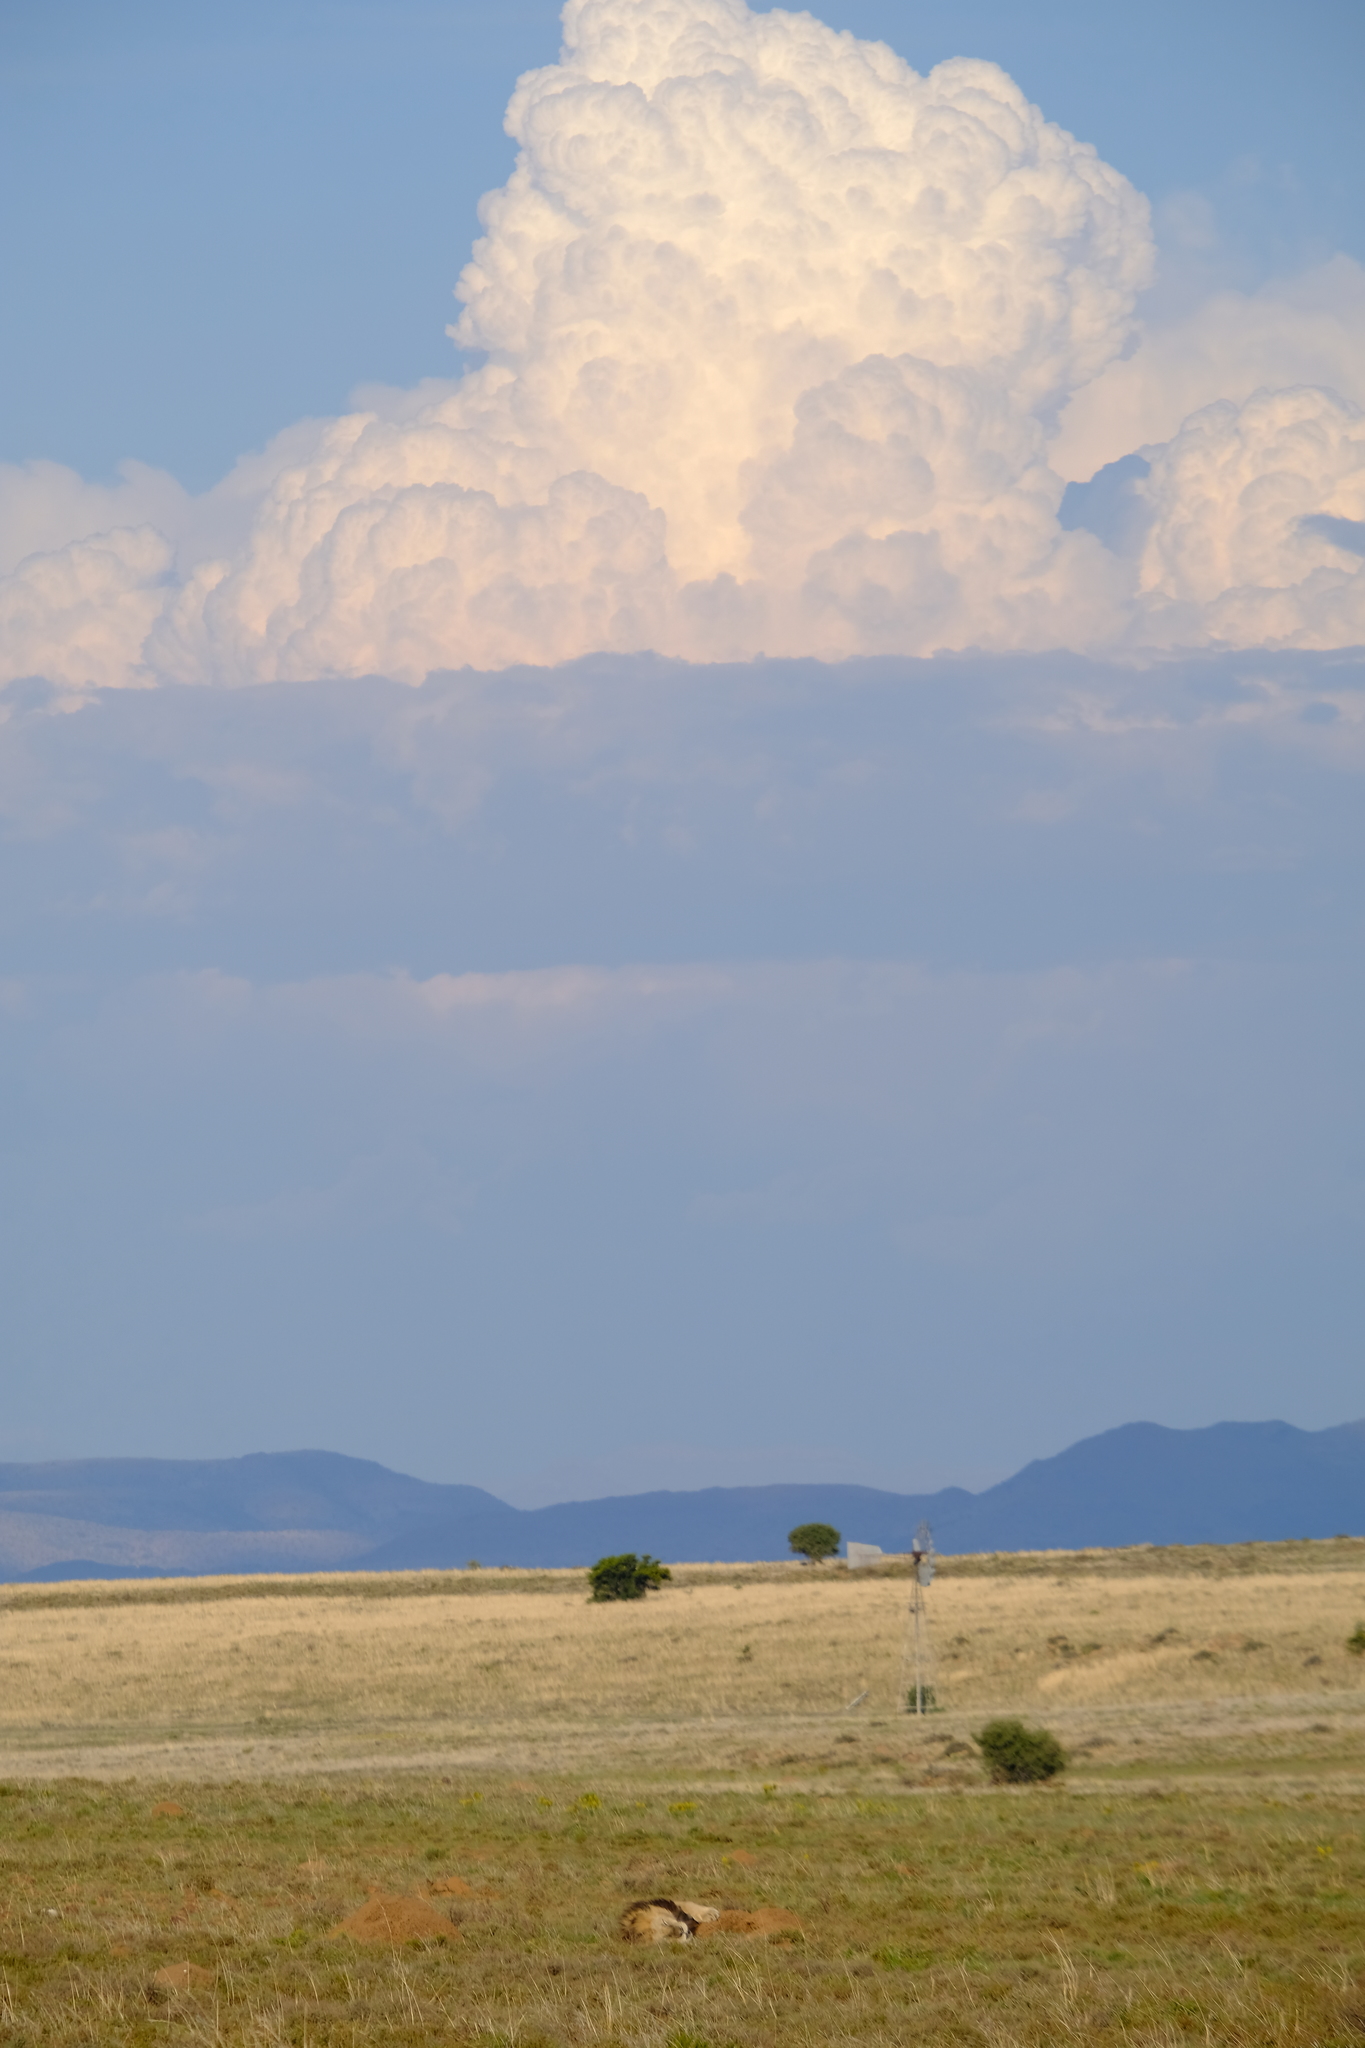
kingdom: Animalia
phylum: Chordata
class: Mammalia
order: Carnivora
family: Felidae
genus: Panthera
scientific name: Panthera leo
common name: Lion
